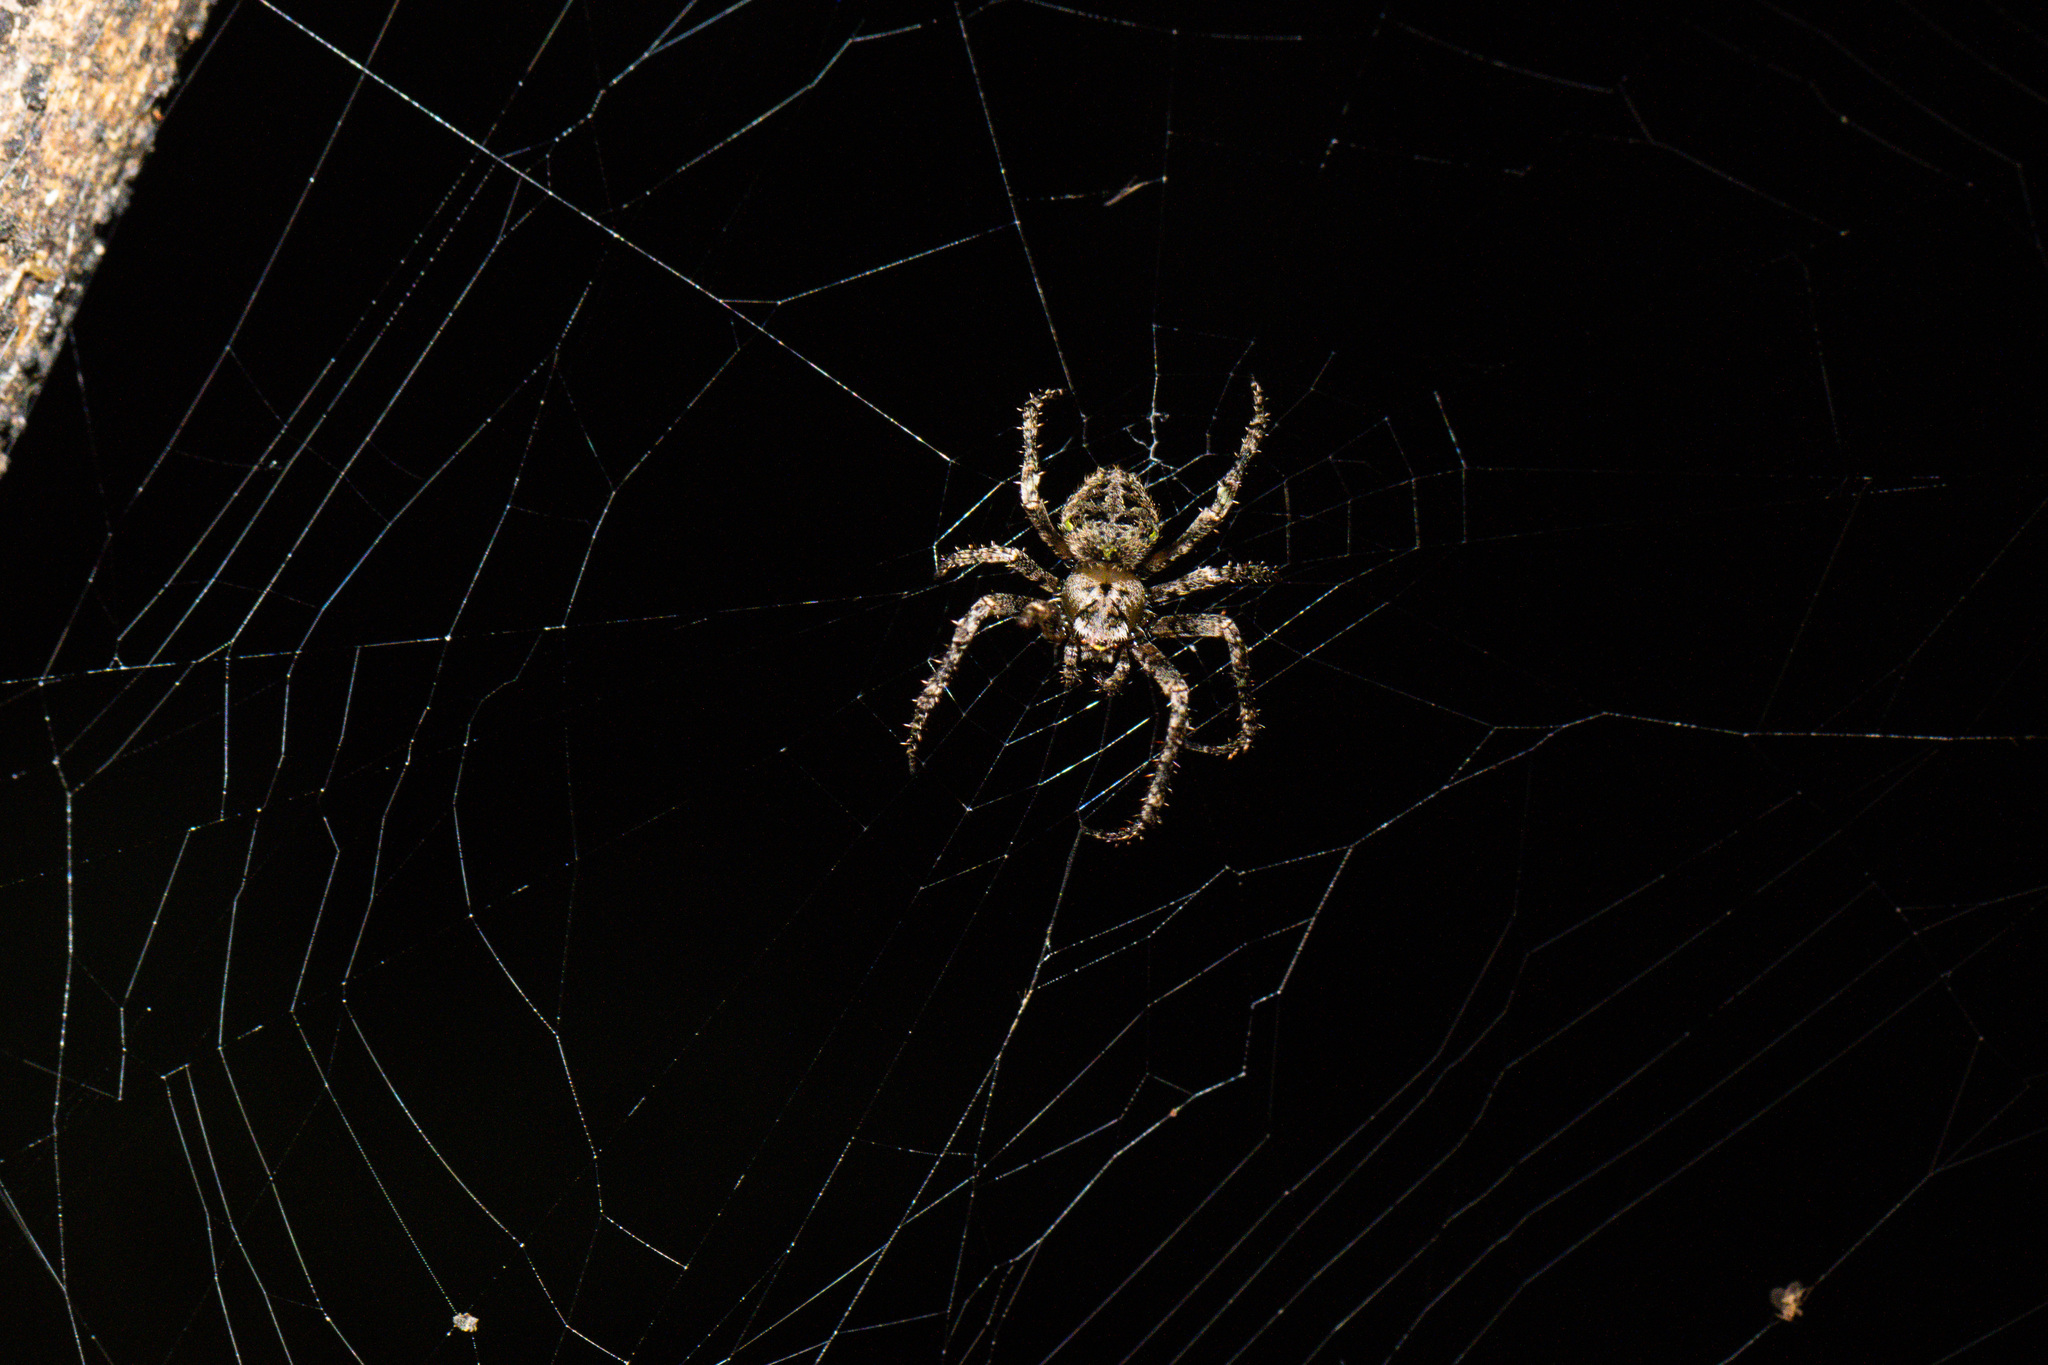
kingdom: Animalia
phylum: Arthropoda
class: Arachnida
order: Araneae
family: Araneidae
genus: Eriophora
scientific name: Eriophora pustulosa
